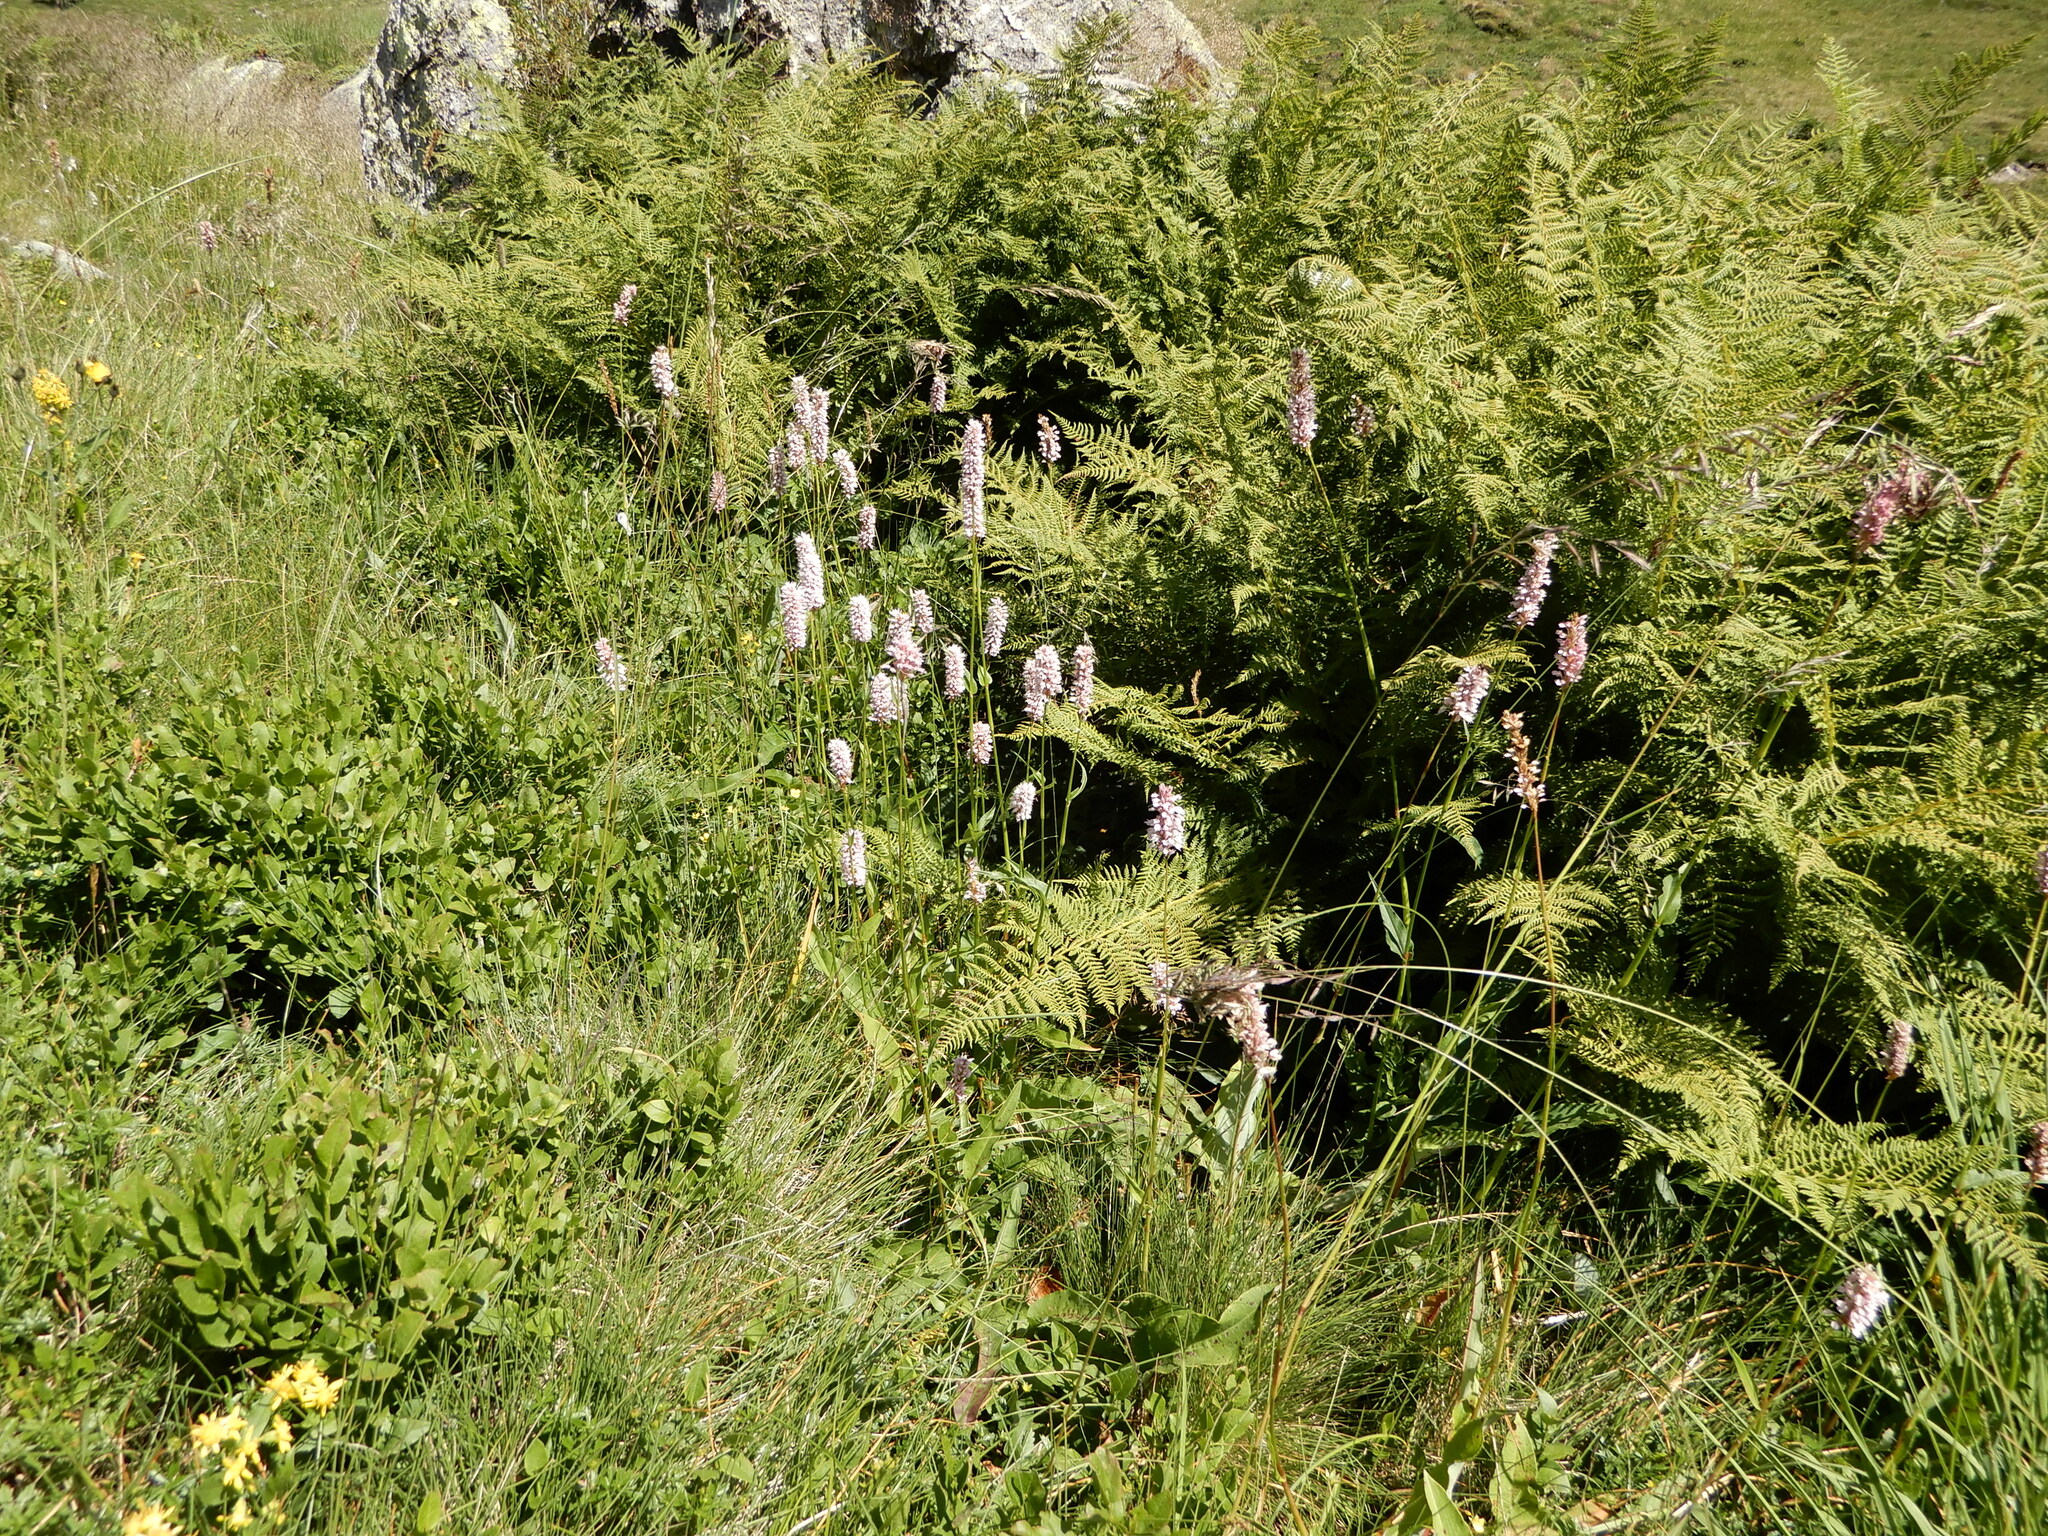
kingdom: Plantae
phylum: Tracheophyta
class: Magnoliopsida
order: Caryophyllales
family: Polygonaceae
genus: Bistorta
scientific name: Bistorta officinalis
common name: Common bistort
